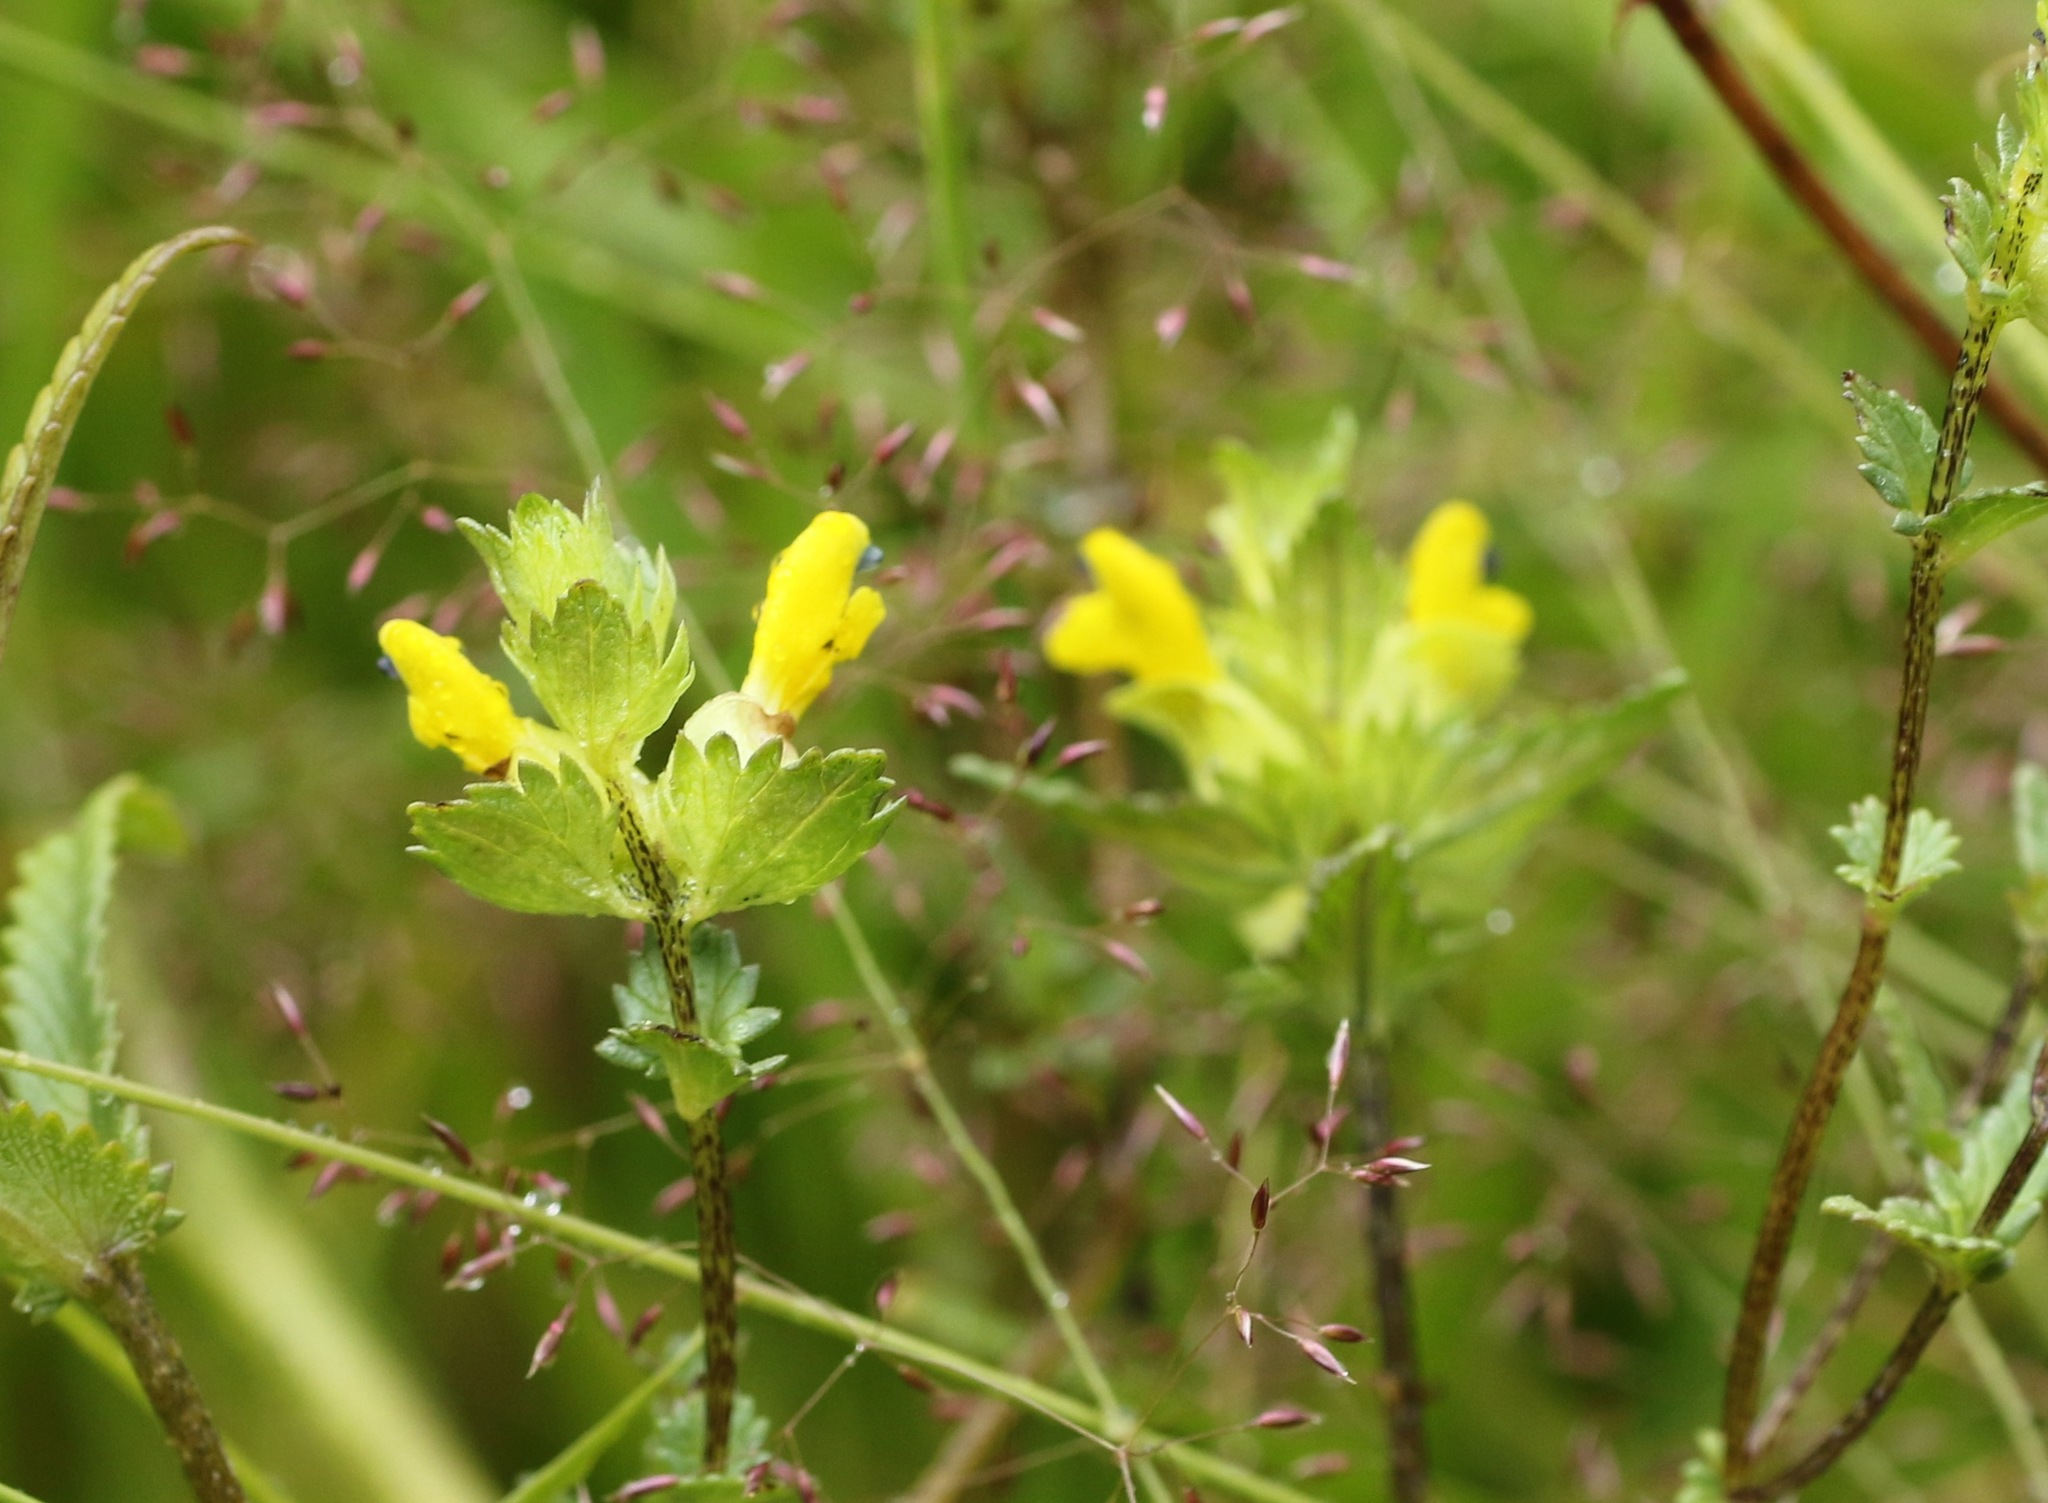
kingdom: Plantae
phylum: Tracheophyta
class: Magnoliopsida
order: Lamiales
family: Orobanchaceae
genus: Rhinanthus
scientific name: Rhinanthus minor
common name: Yellow-rattle
